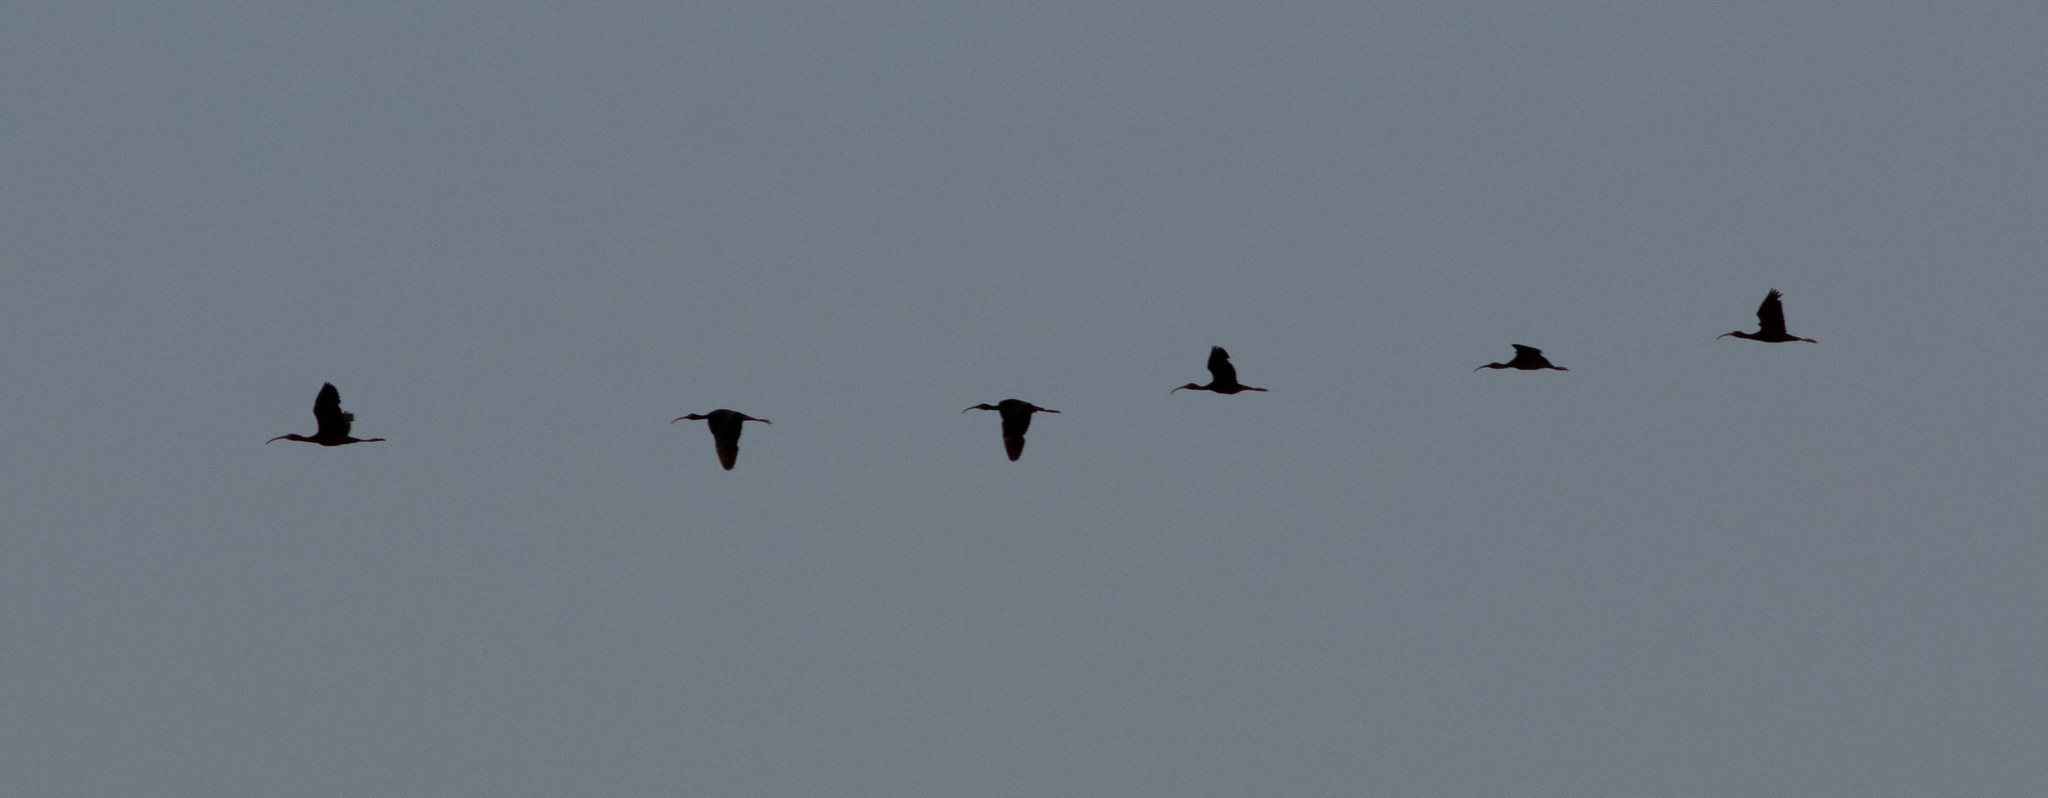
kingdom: Animalia
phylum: Chordata
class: Aves
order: Pelecaniformes
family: Threskiornithidae
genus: Plegadis
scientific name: Plegadis
